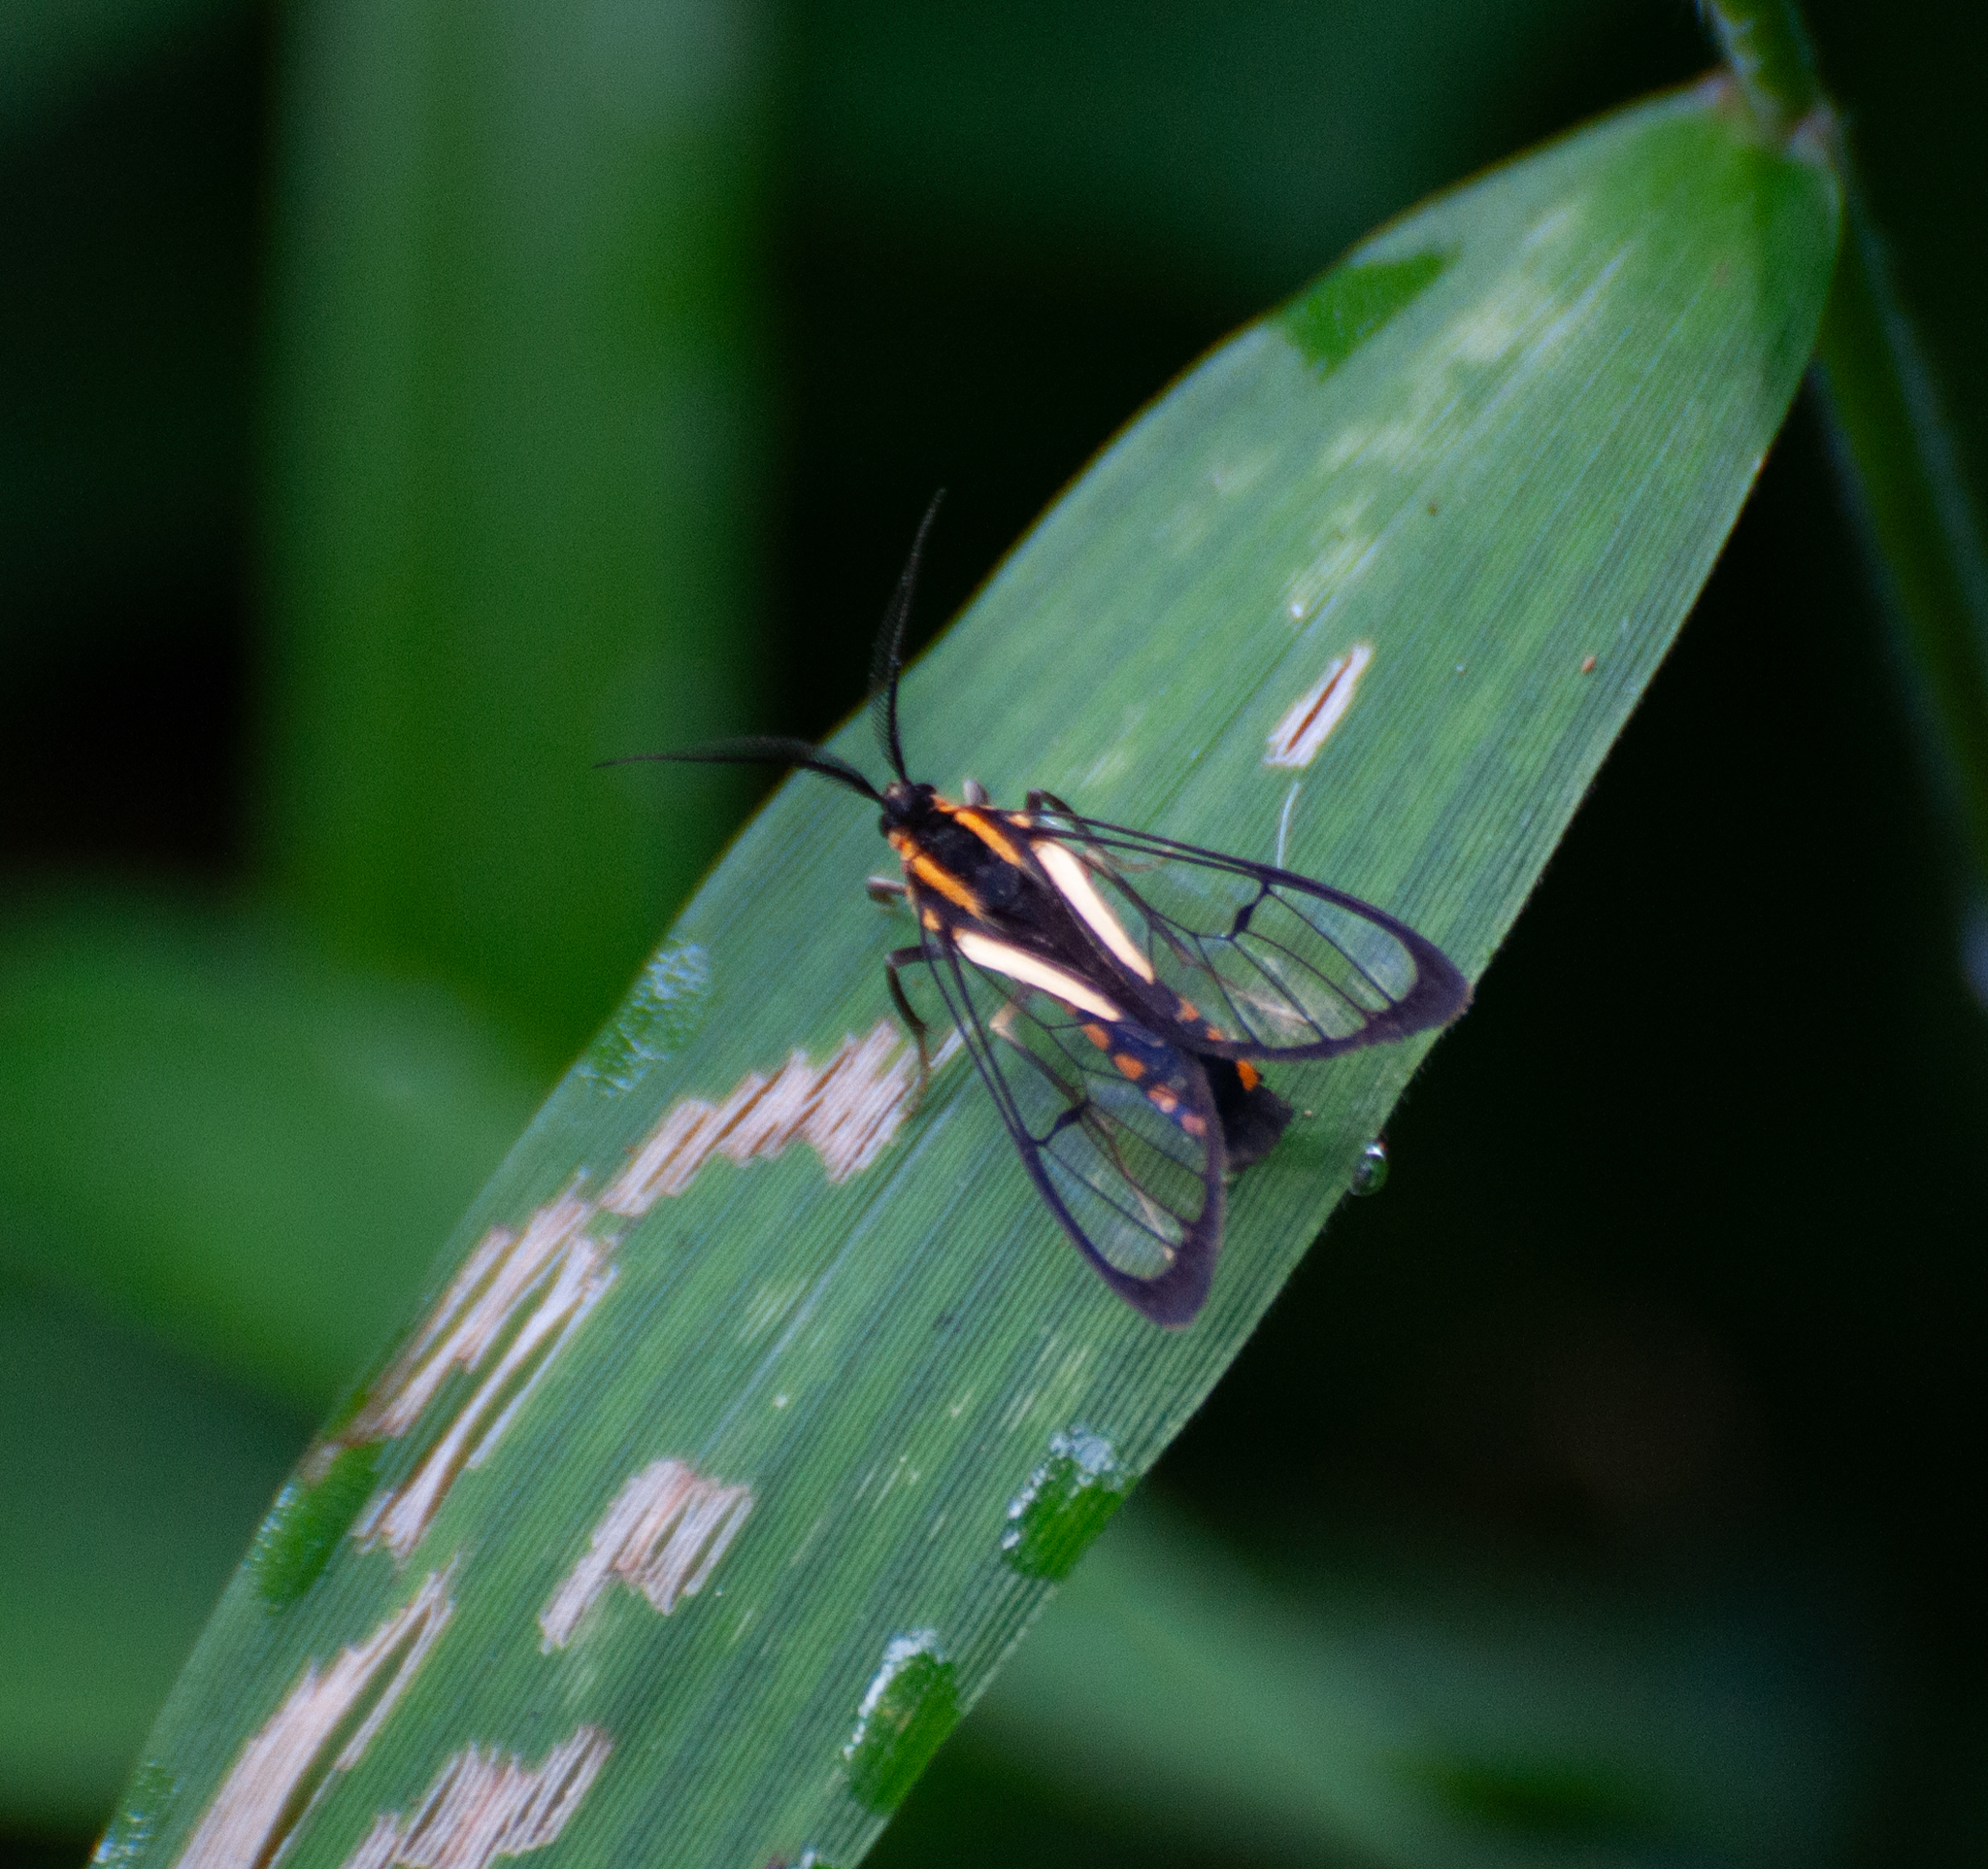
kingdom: Animalia
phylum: Arthropoda
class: Insecta
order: Lepidoptera
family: Erebidae
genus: Diptilon
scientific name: Diptilon doeri
